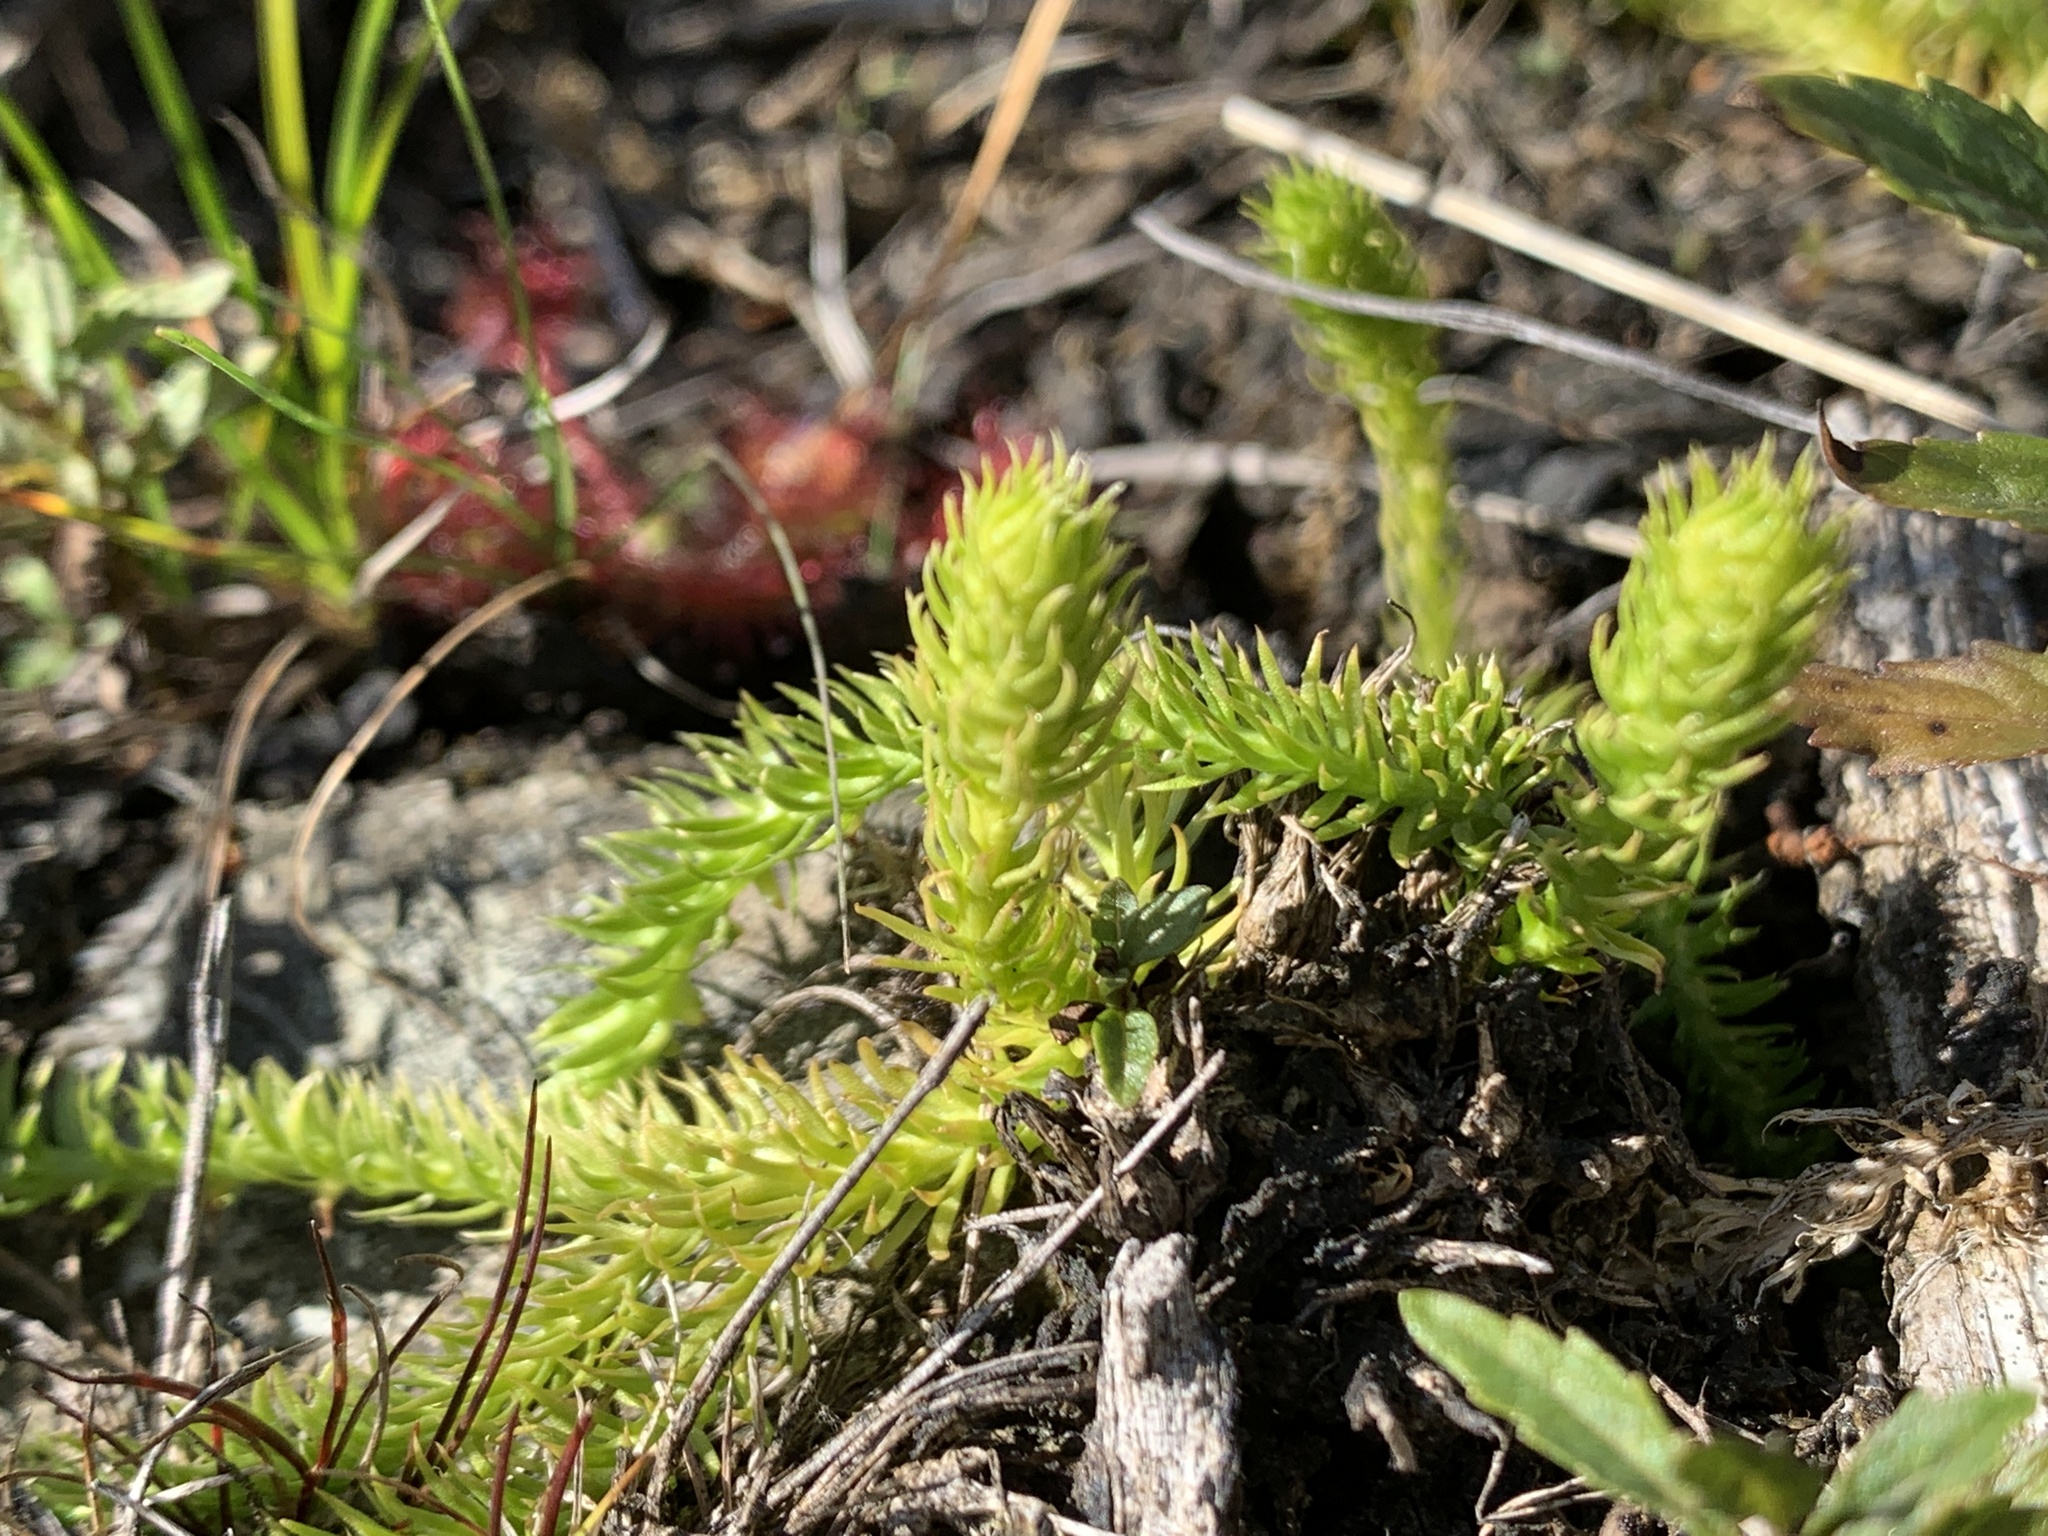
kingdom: Plantae
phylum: Tracheophyta
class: Lycopodiopsida
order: Lycopodiales
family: Lycopodiaceae
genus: Lycopodiella
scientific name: Lycopodiella inundata
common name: Marsh clubmoss
